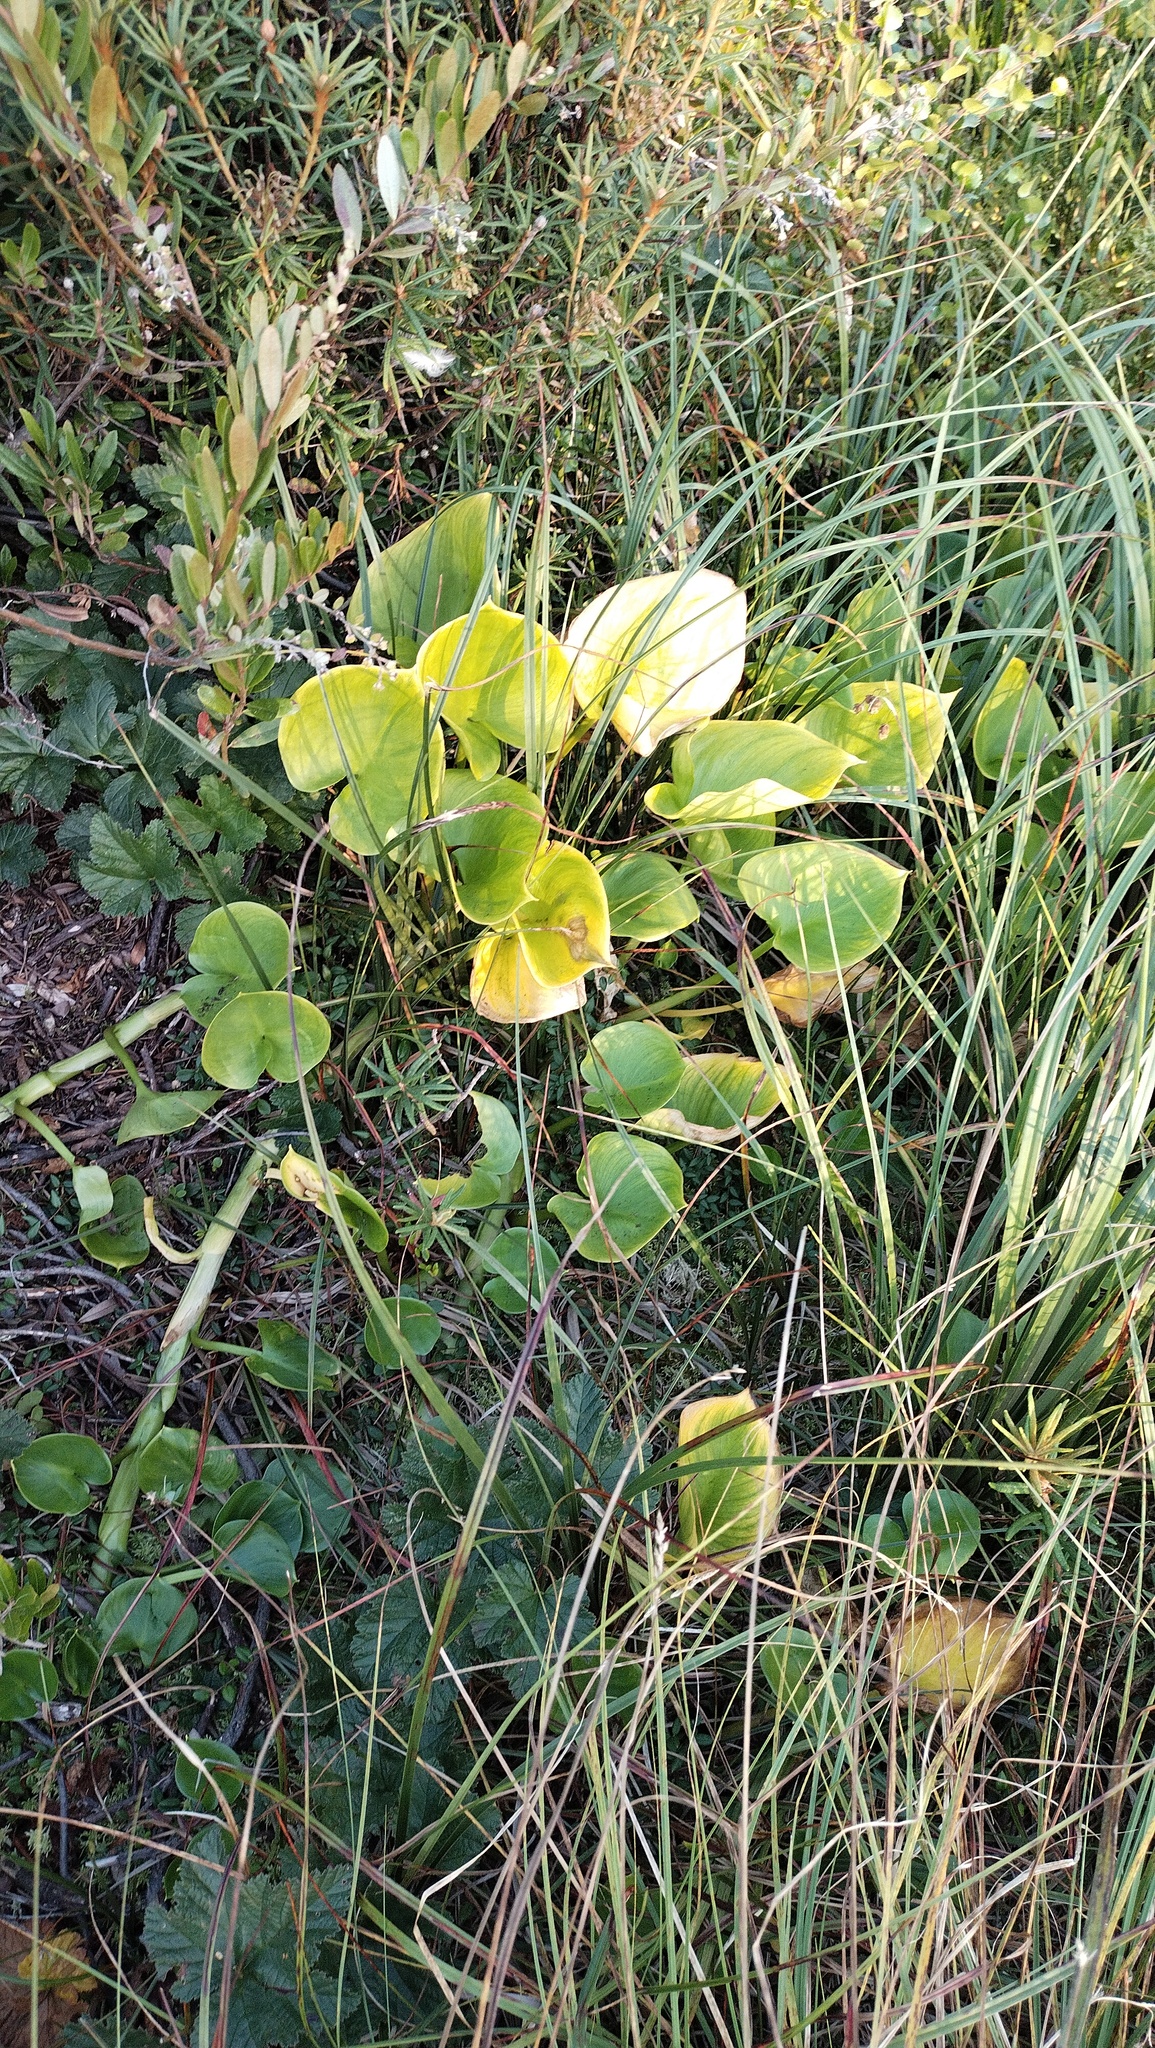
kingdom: Plantae
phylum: Tracheophyta
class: Liliopsida
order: Alismatales
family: Araceae
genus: Calla
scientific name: Calla palustris
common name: Bog arum
